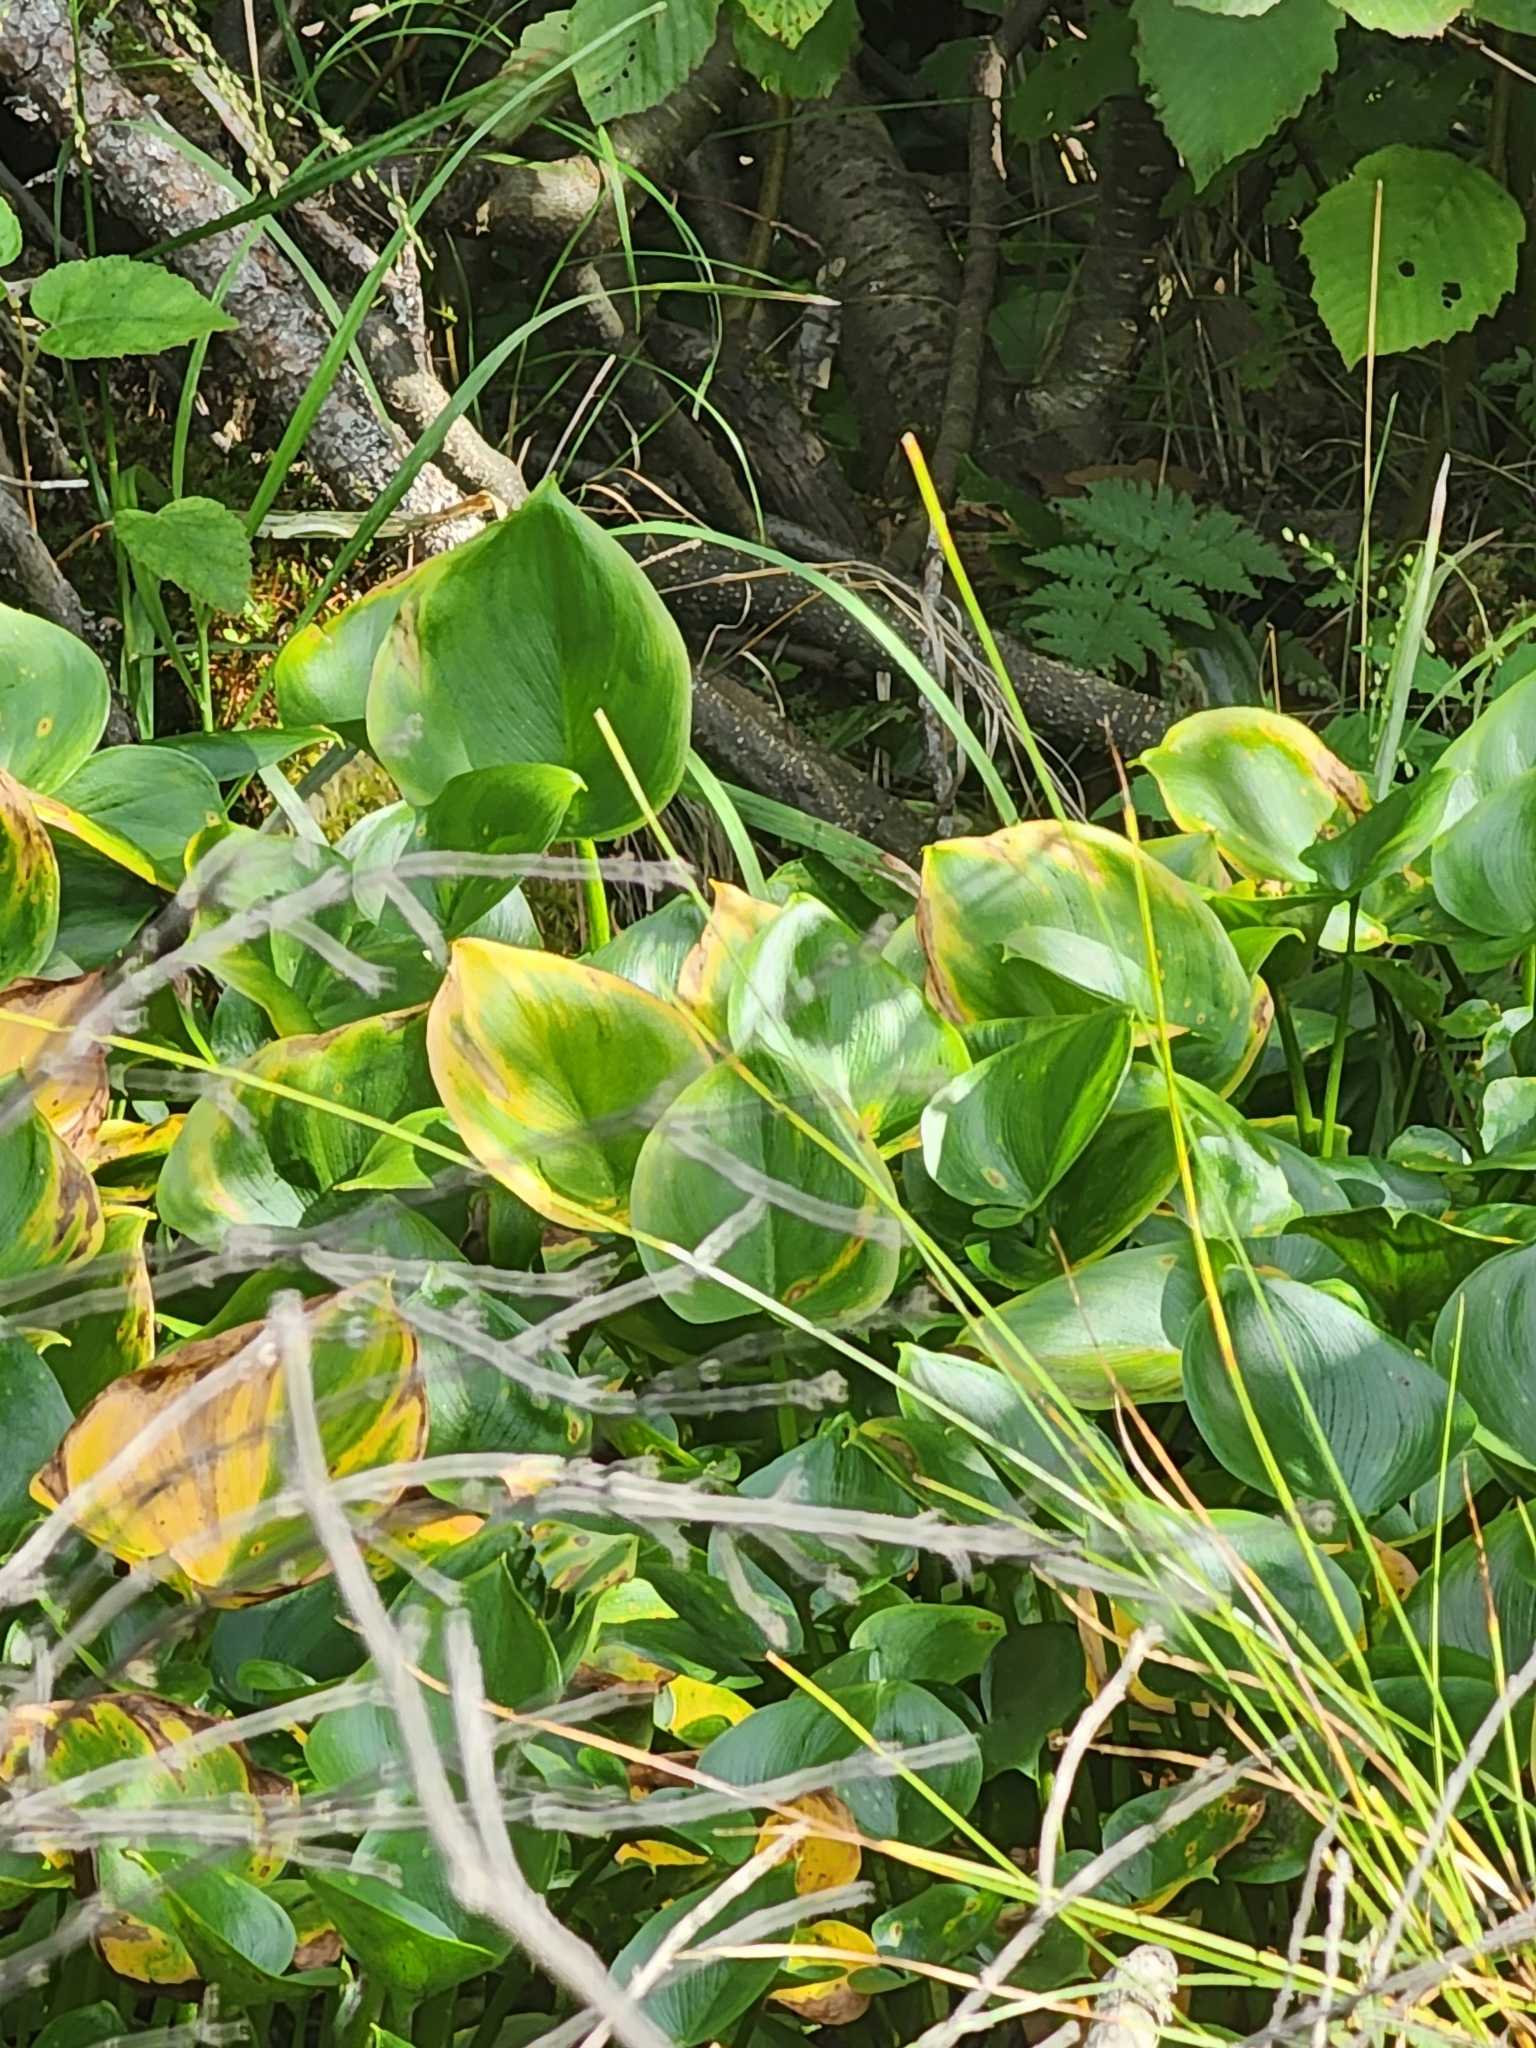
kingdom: Plantae
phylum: Tracheophyta
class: Liliopsida
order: Alismatales
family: Araceae
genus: Calla
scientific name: Calla palustris
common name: Bog arum
